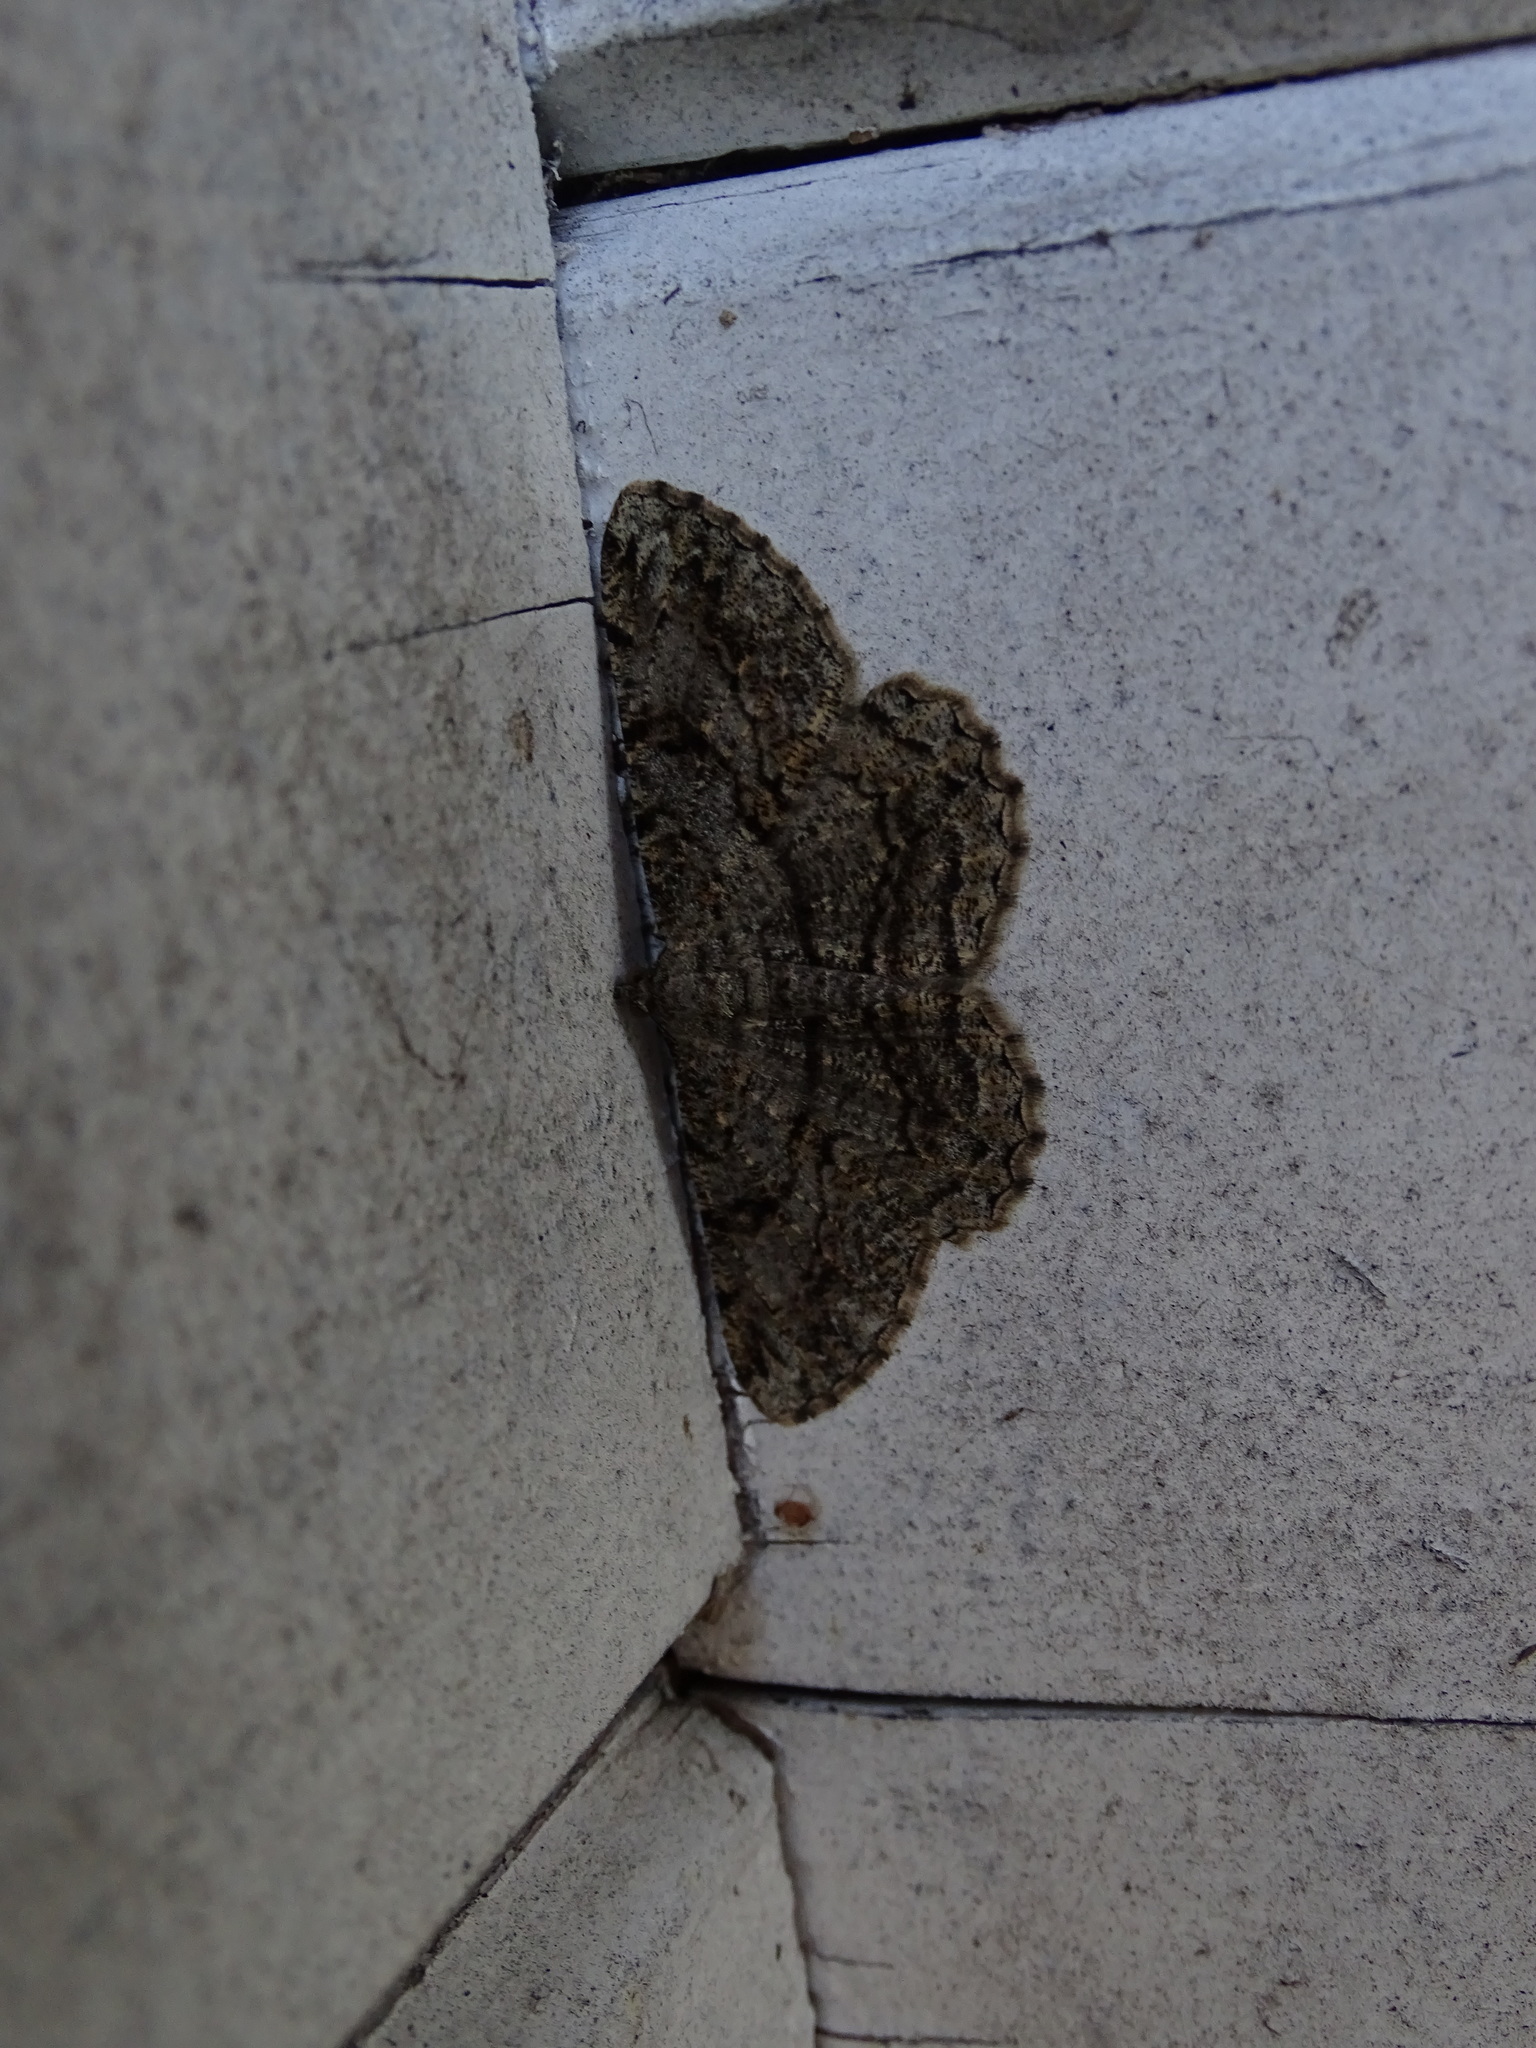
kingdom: Animalia
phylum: Arthropoda
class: Insecta
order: Lepidoptera
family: Geometridae
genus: Peribatodes
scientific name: Peribatodes rhomboidaria
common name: Willow beauty
